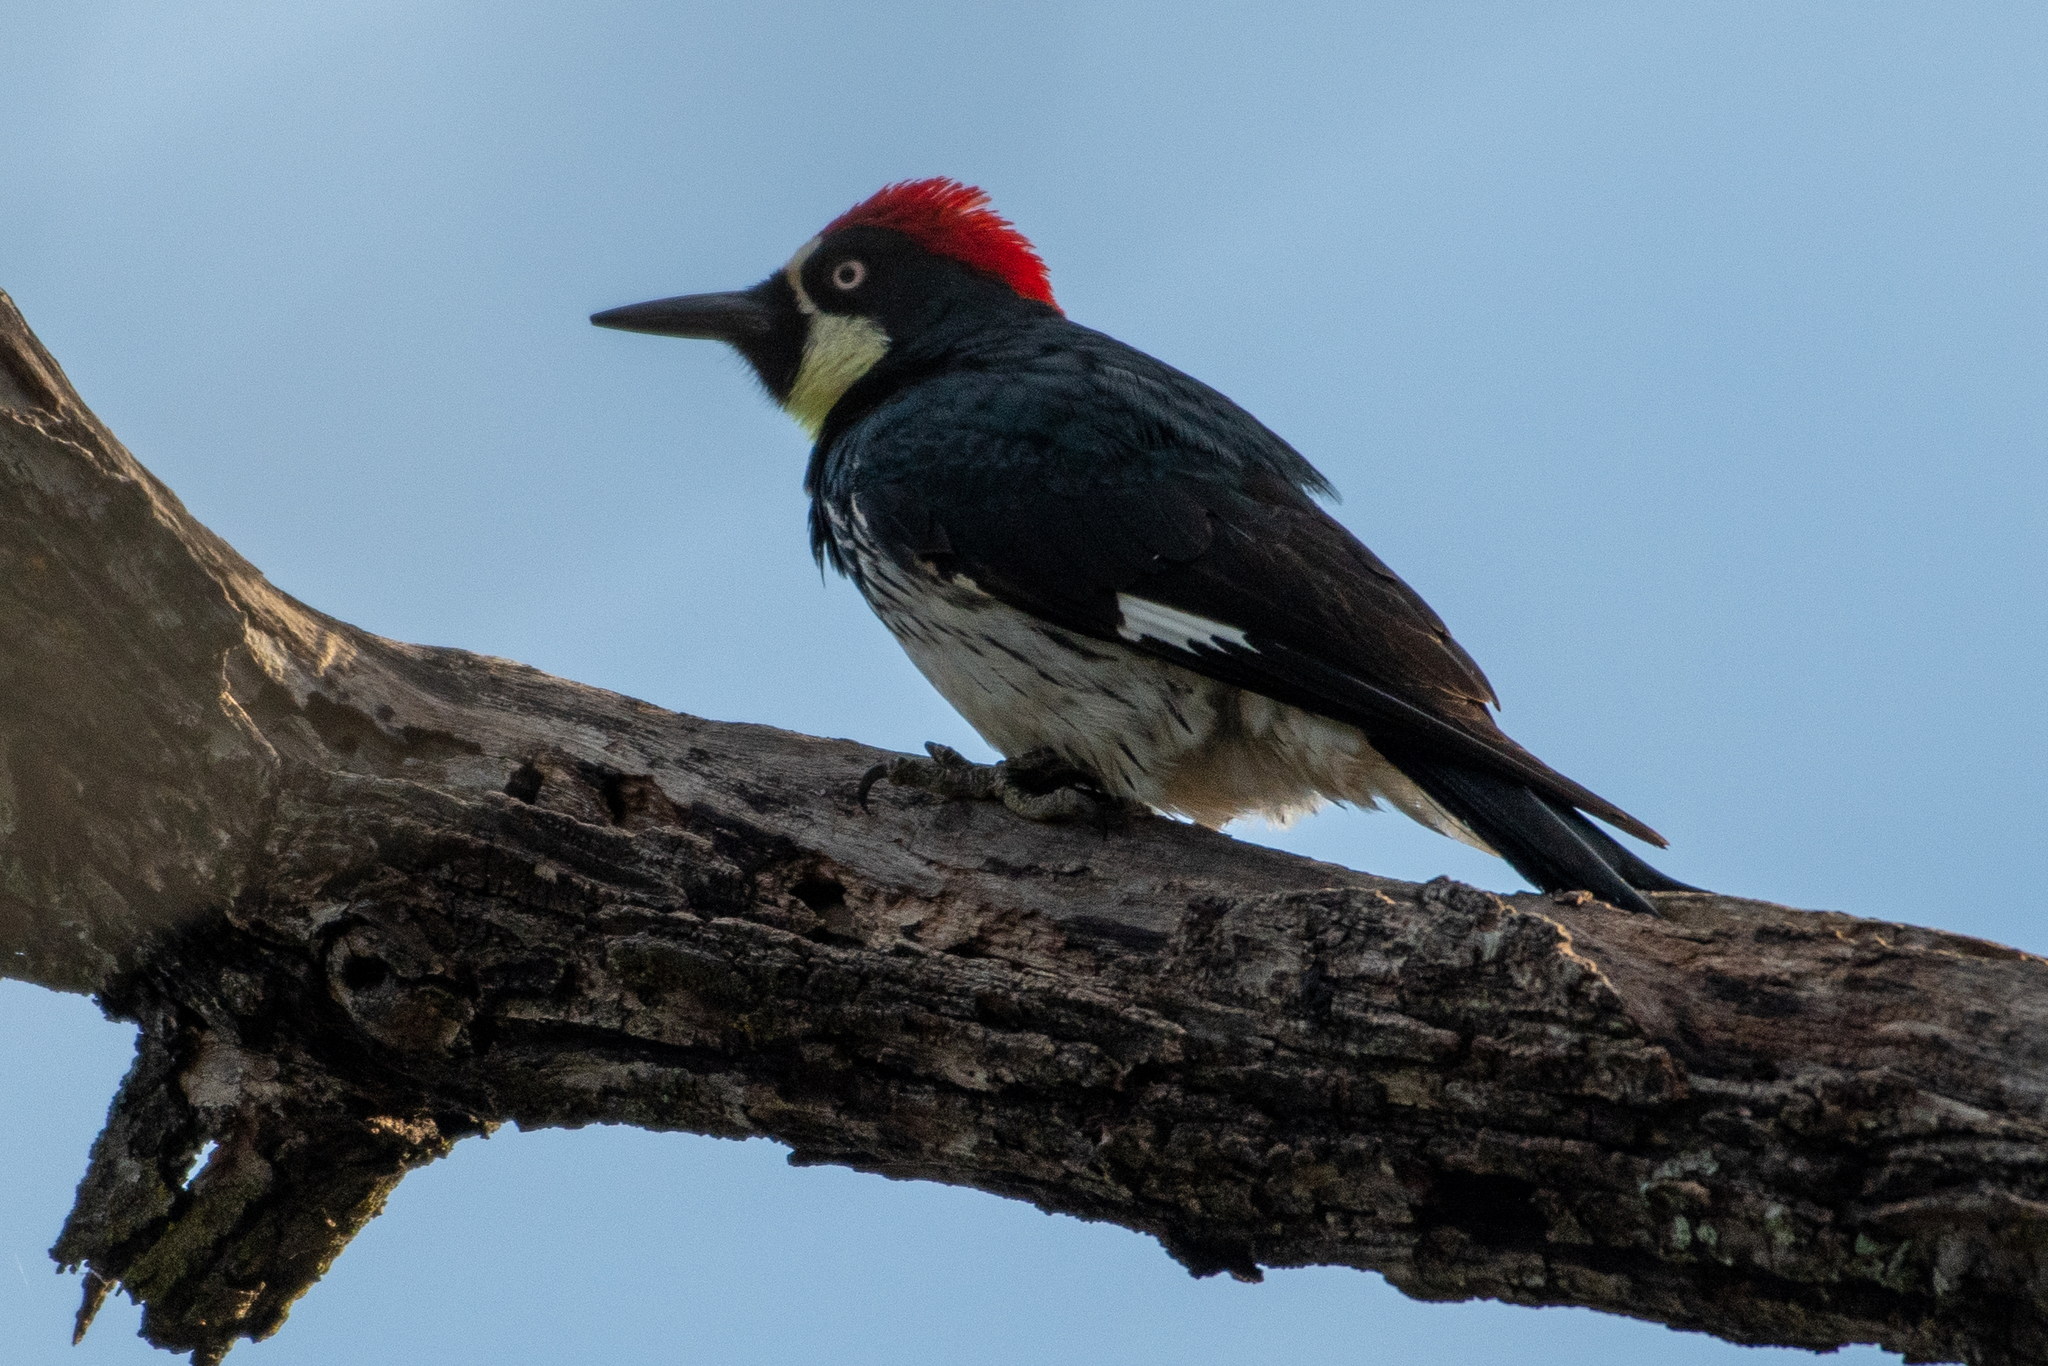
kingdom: Animalia
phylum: Chordata
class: Aves
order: Piciformes
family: Picidae
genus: Melanerpes
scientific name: Melanerpes formicivorus
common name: Acorn woodpecker
